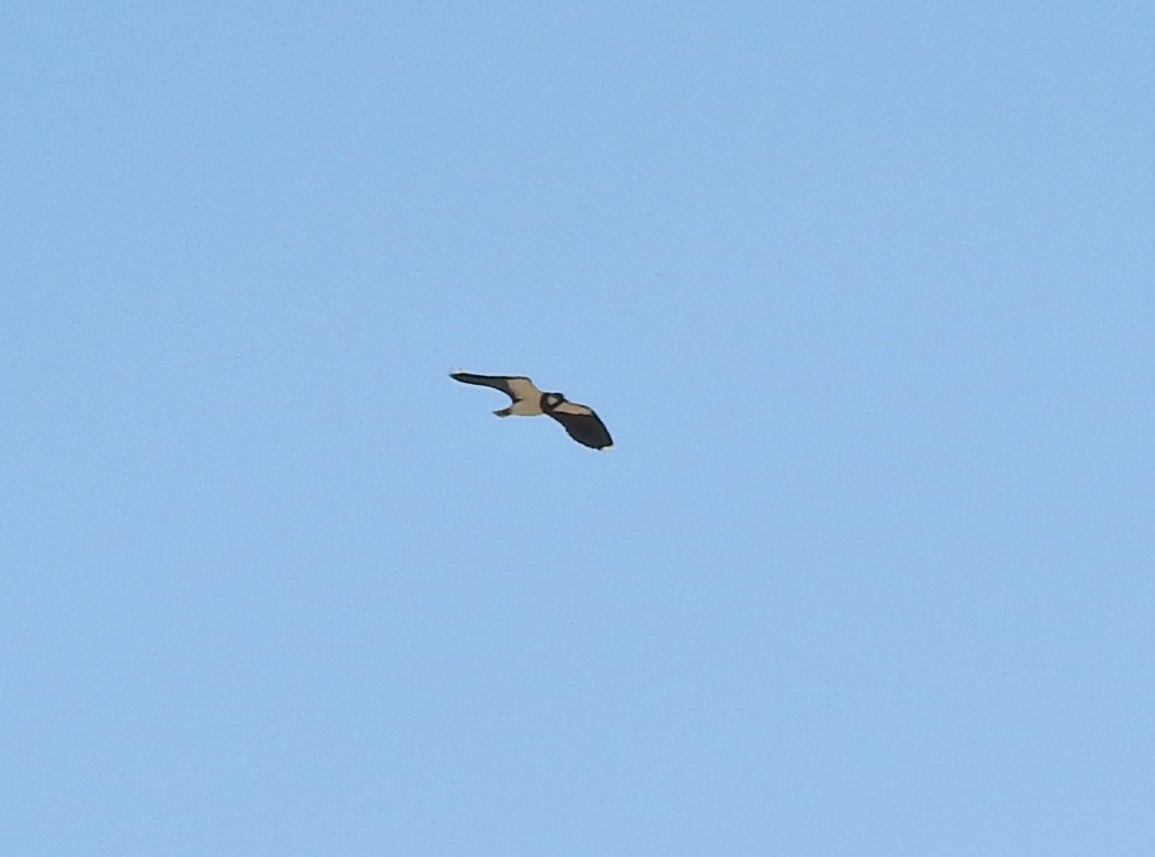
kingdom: Animalia
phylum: Chordata
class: Aves
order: Charadriiformes
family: Charadriidae
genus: Vanellus
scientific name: Vanellus vanellus
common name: Northern lapwing
